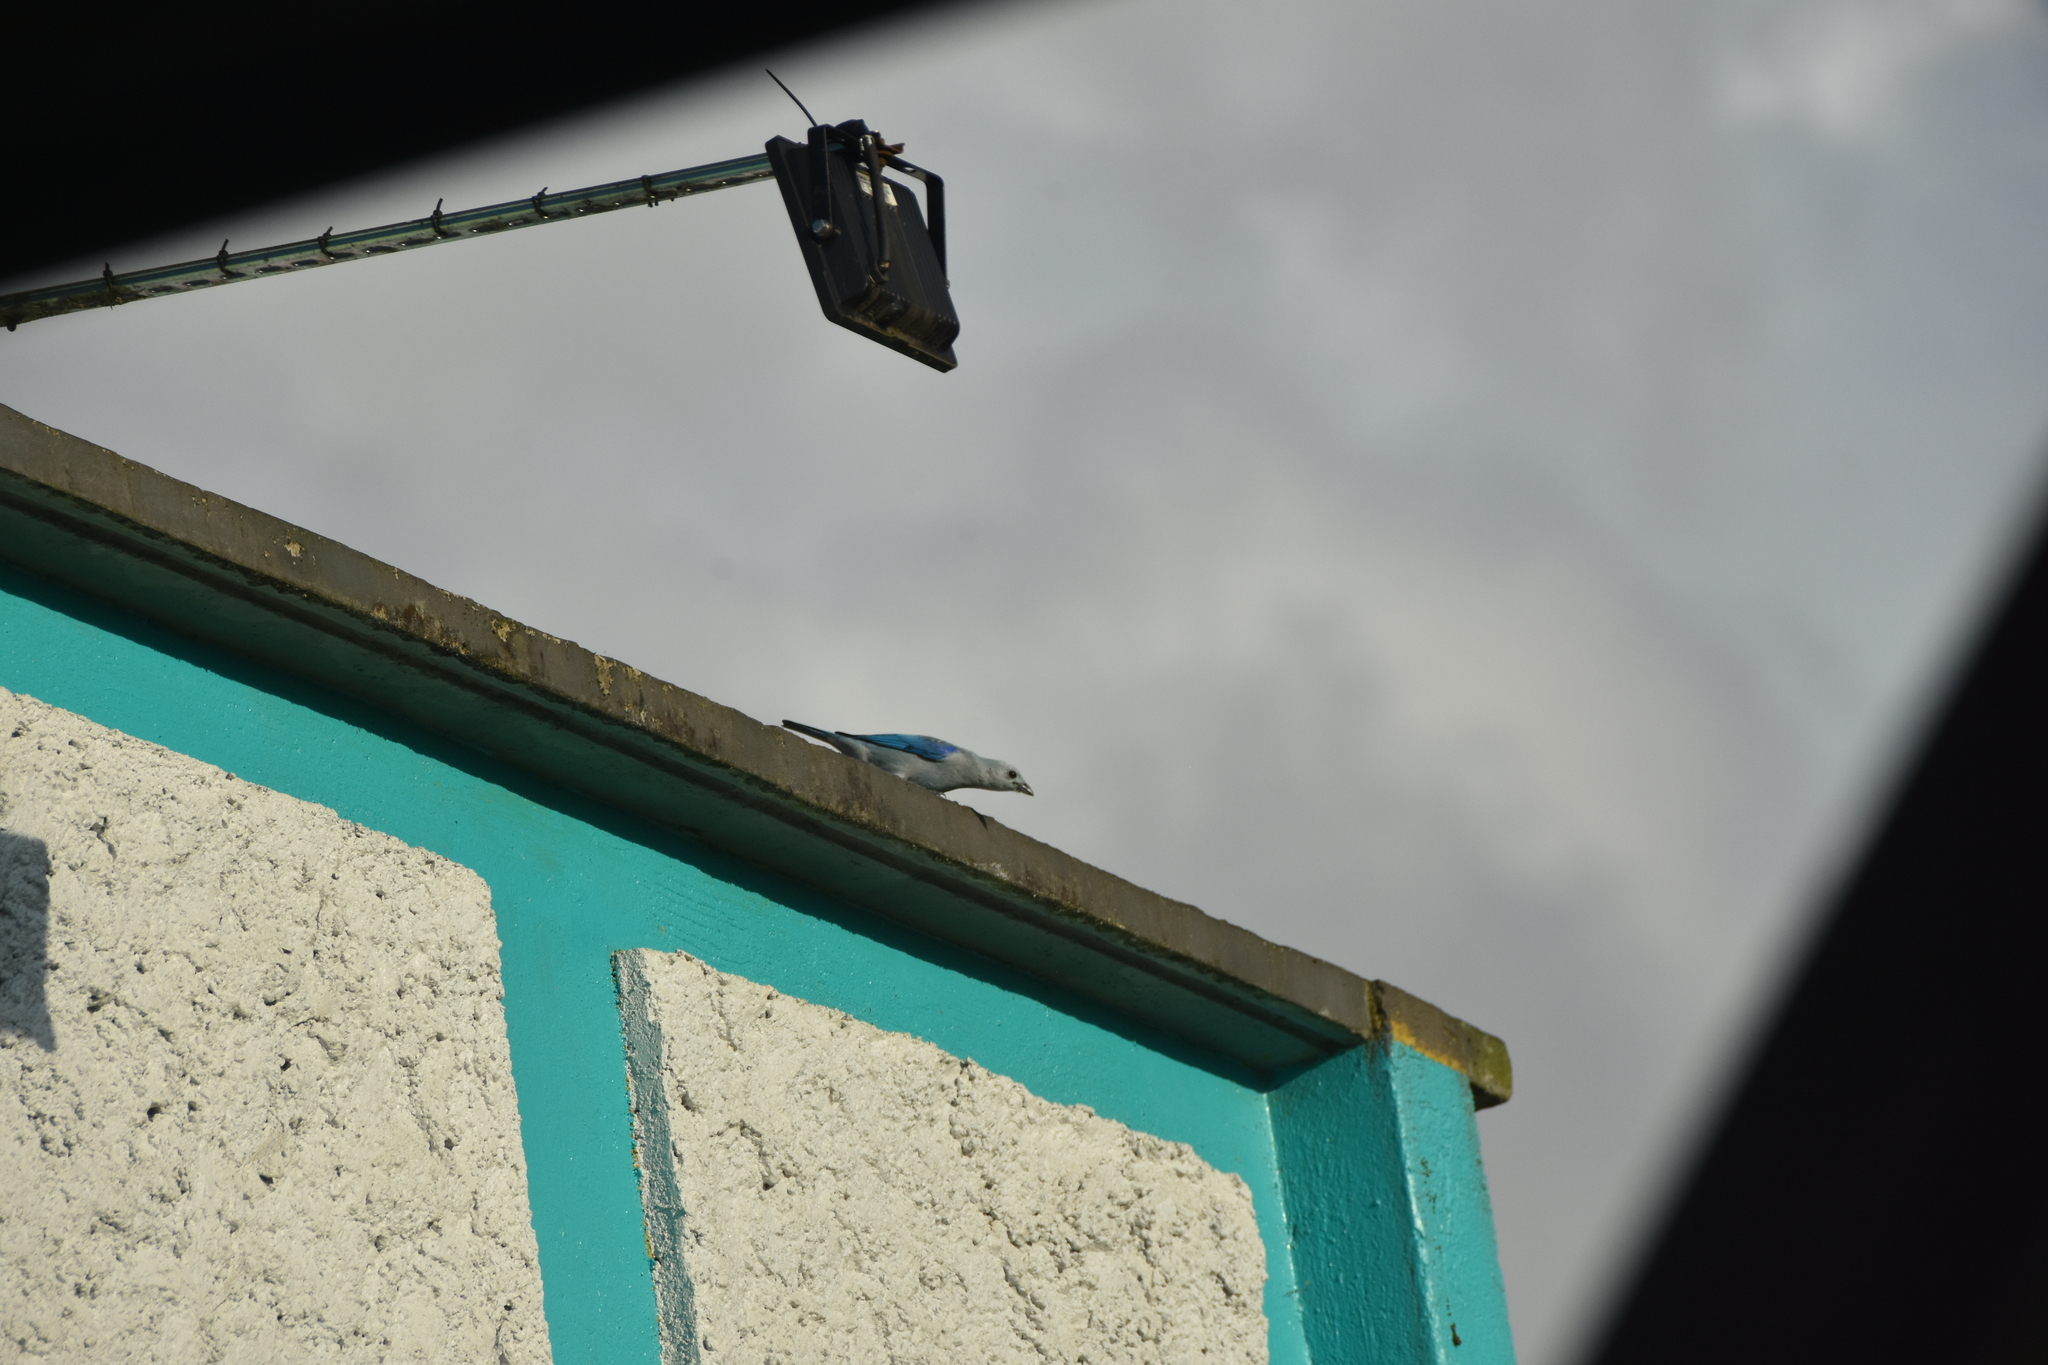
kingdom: Animalia
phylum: Chordata
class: Aves
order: Passeriformes
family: Thraupidae
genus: Thraupis
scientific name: Thraupis episcopus
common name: Blue-grey tanager
